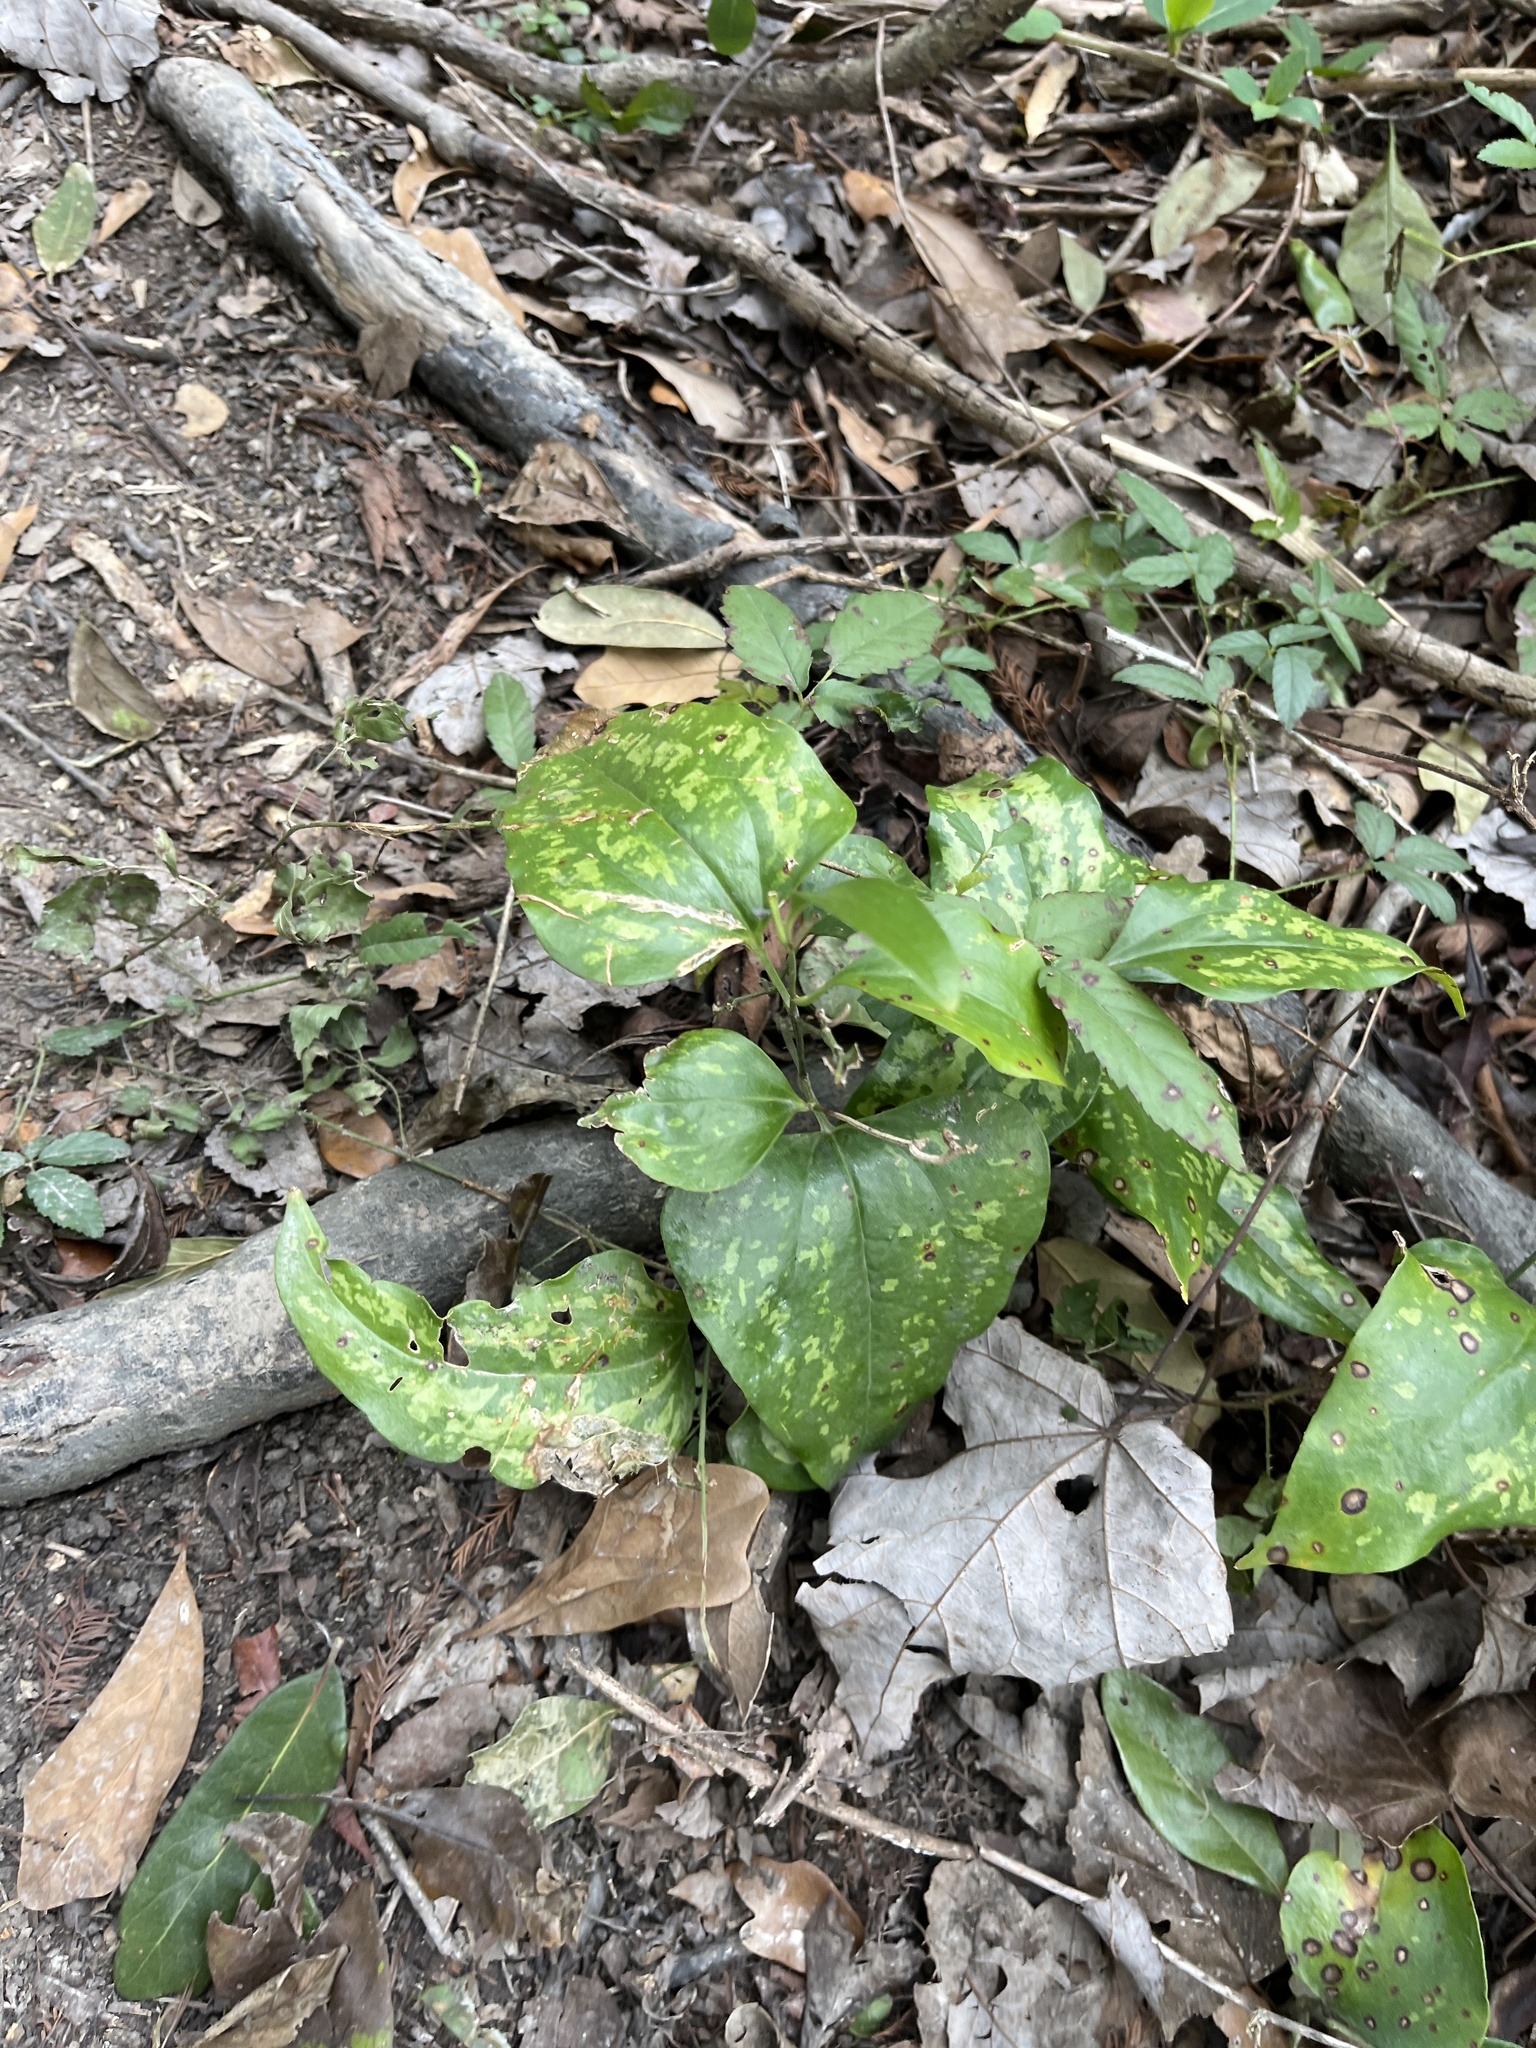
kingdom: Plantae
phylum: Tracheophyta
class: Liliopsida
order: Liliales
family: Smilacaceae
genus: Smilax
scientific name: Smilax maritima
